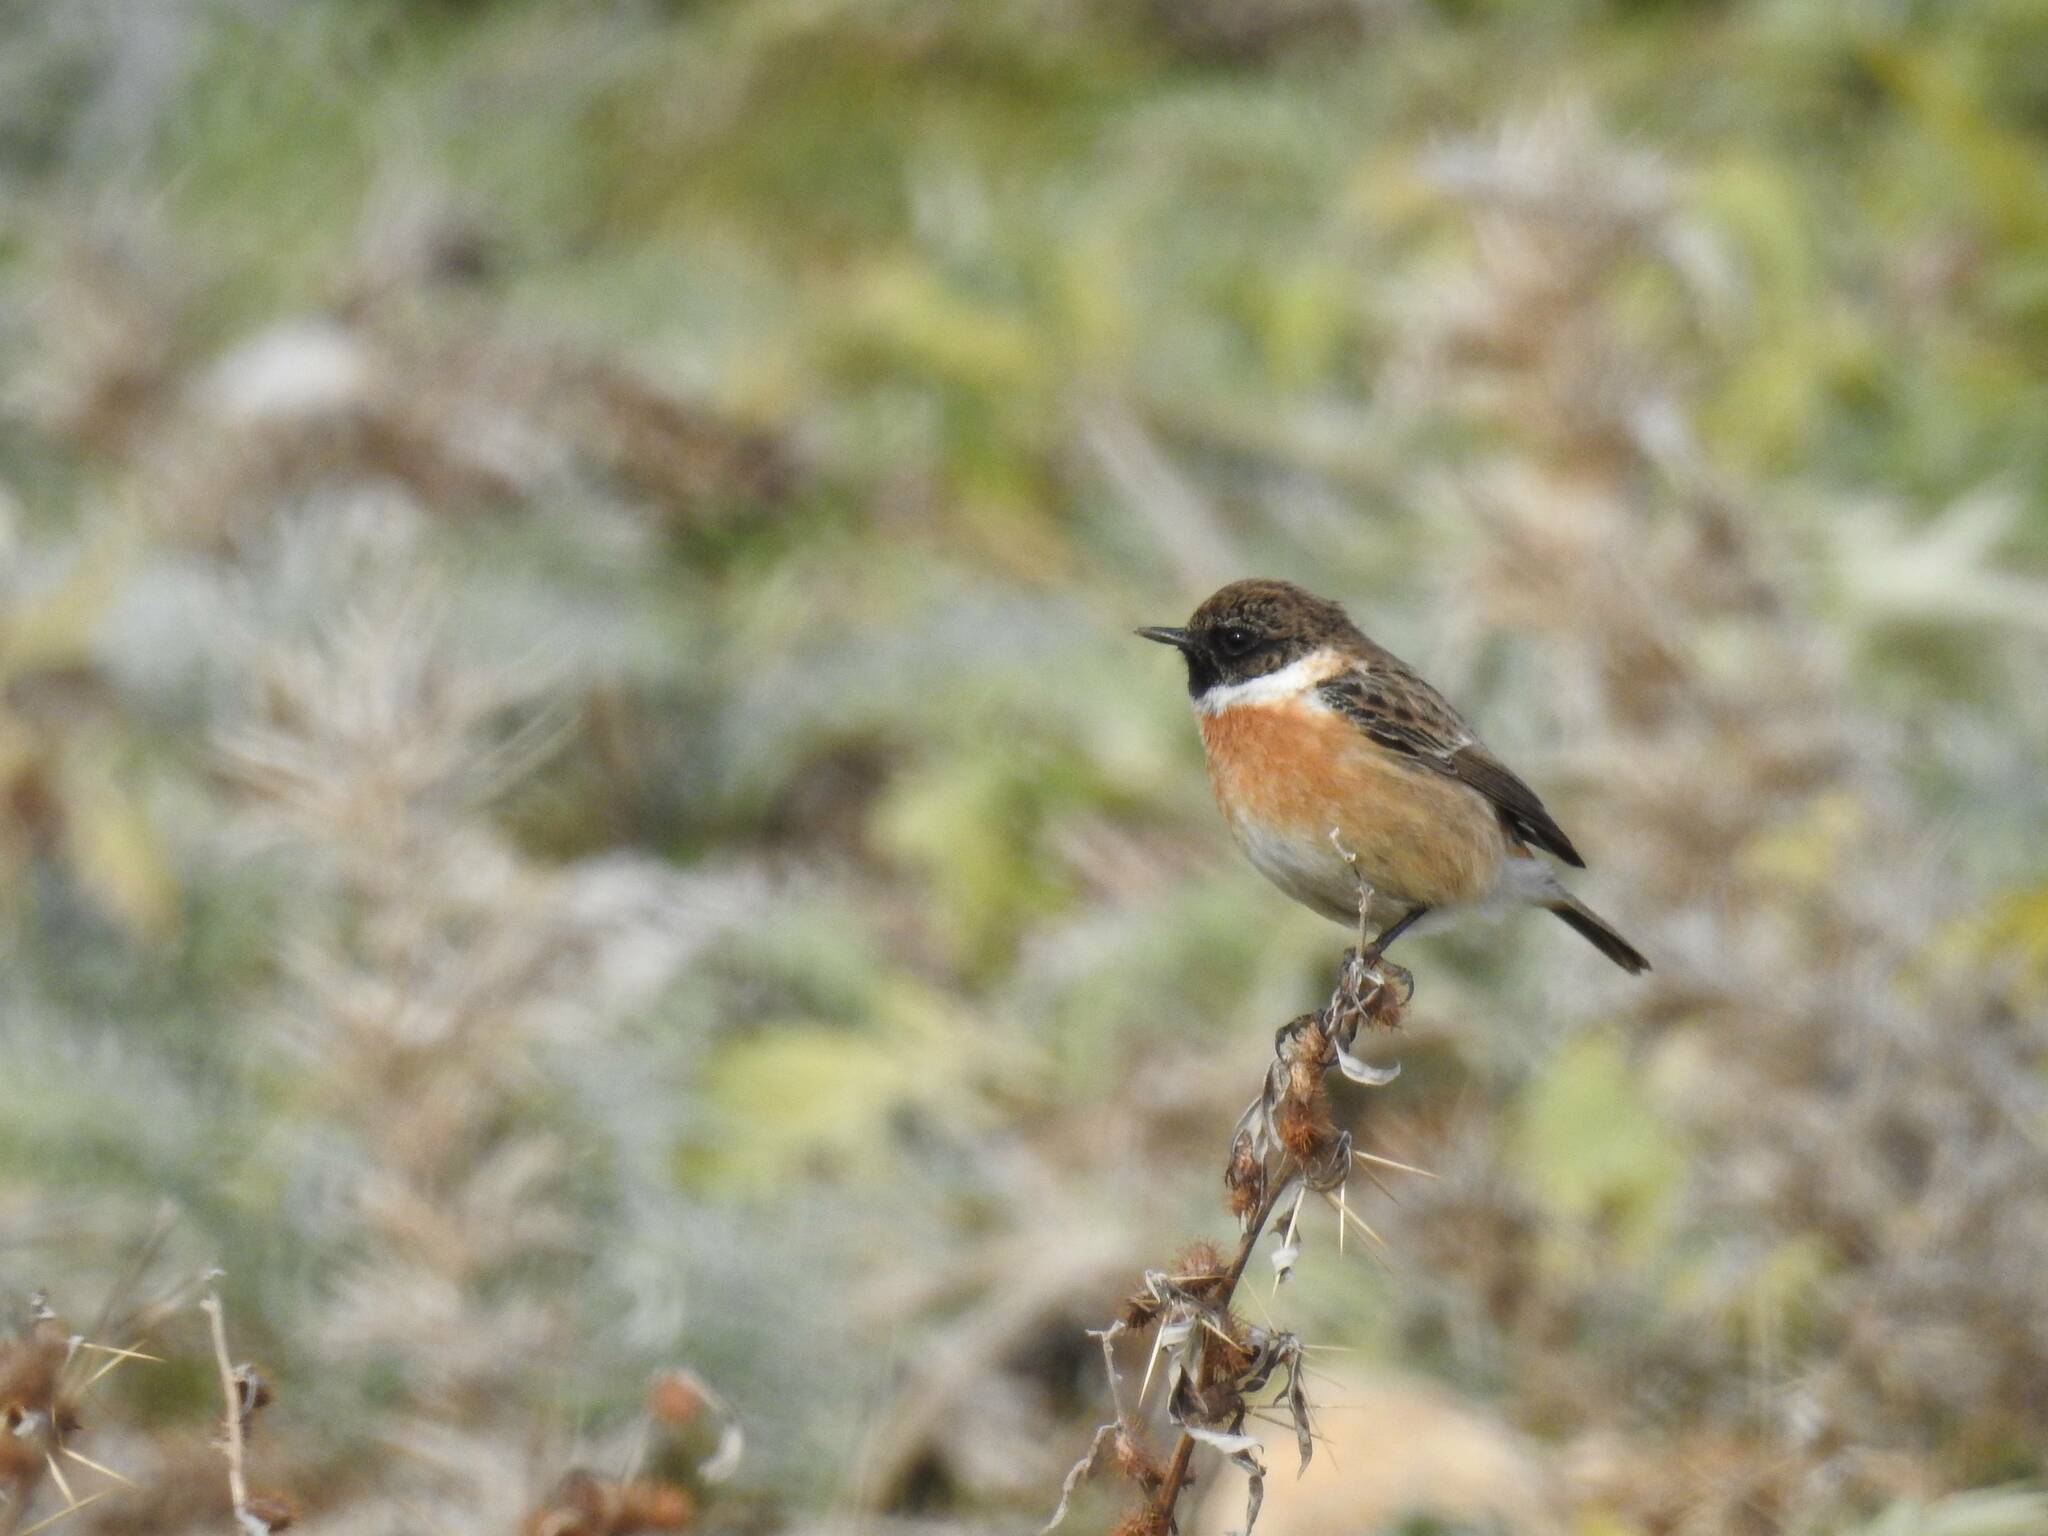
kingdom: Animalia
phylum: Chordata
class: Aves
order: Passeriformes
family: Muscicapidae
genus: Saxicola
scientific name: Saxicola rubicola
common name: European stonechat
